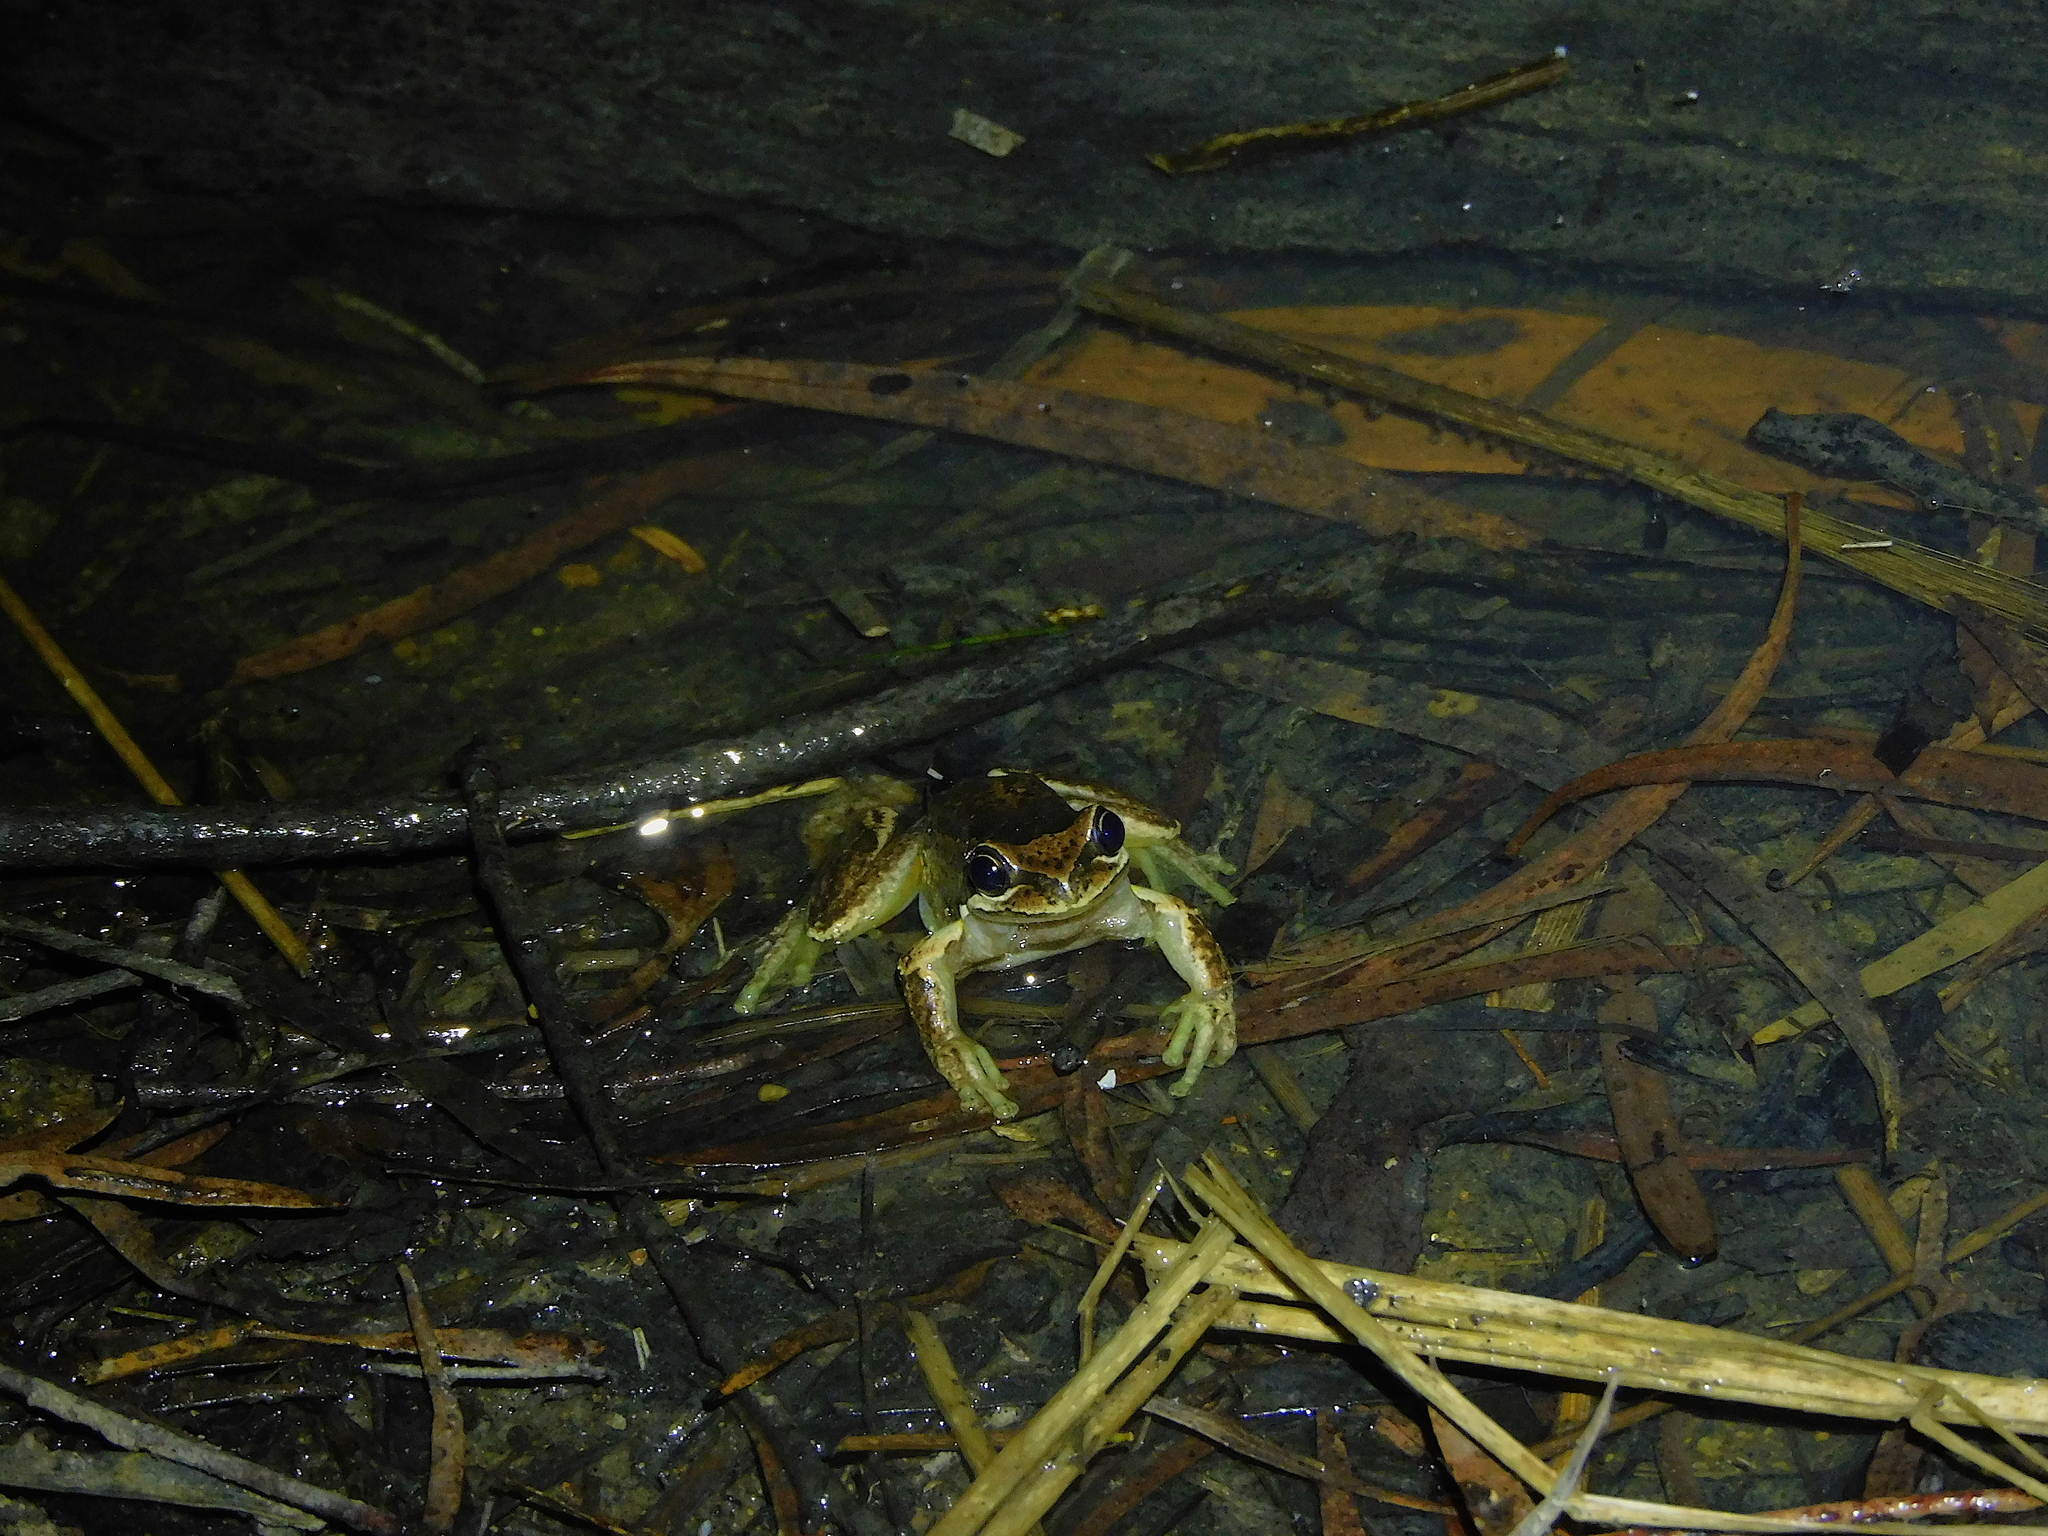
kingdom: Animalia
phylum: Chordata
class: Amphibia
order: Anura
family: Pelodryadidae
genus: Litoria
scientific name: Litoria ewingii
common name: Southern brown tree frog
